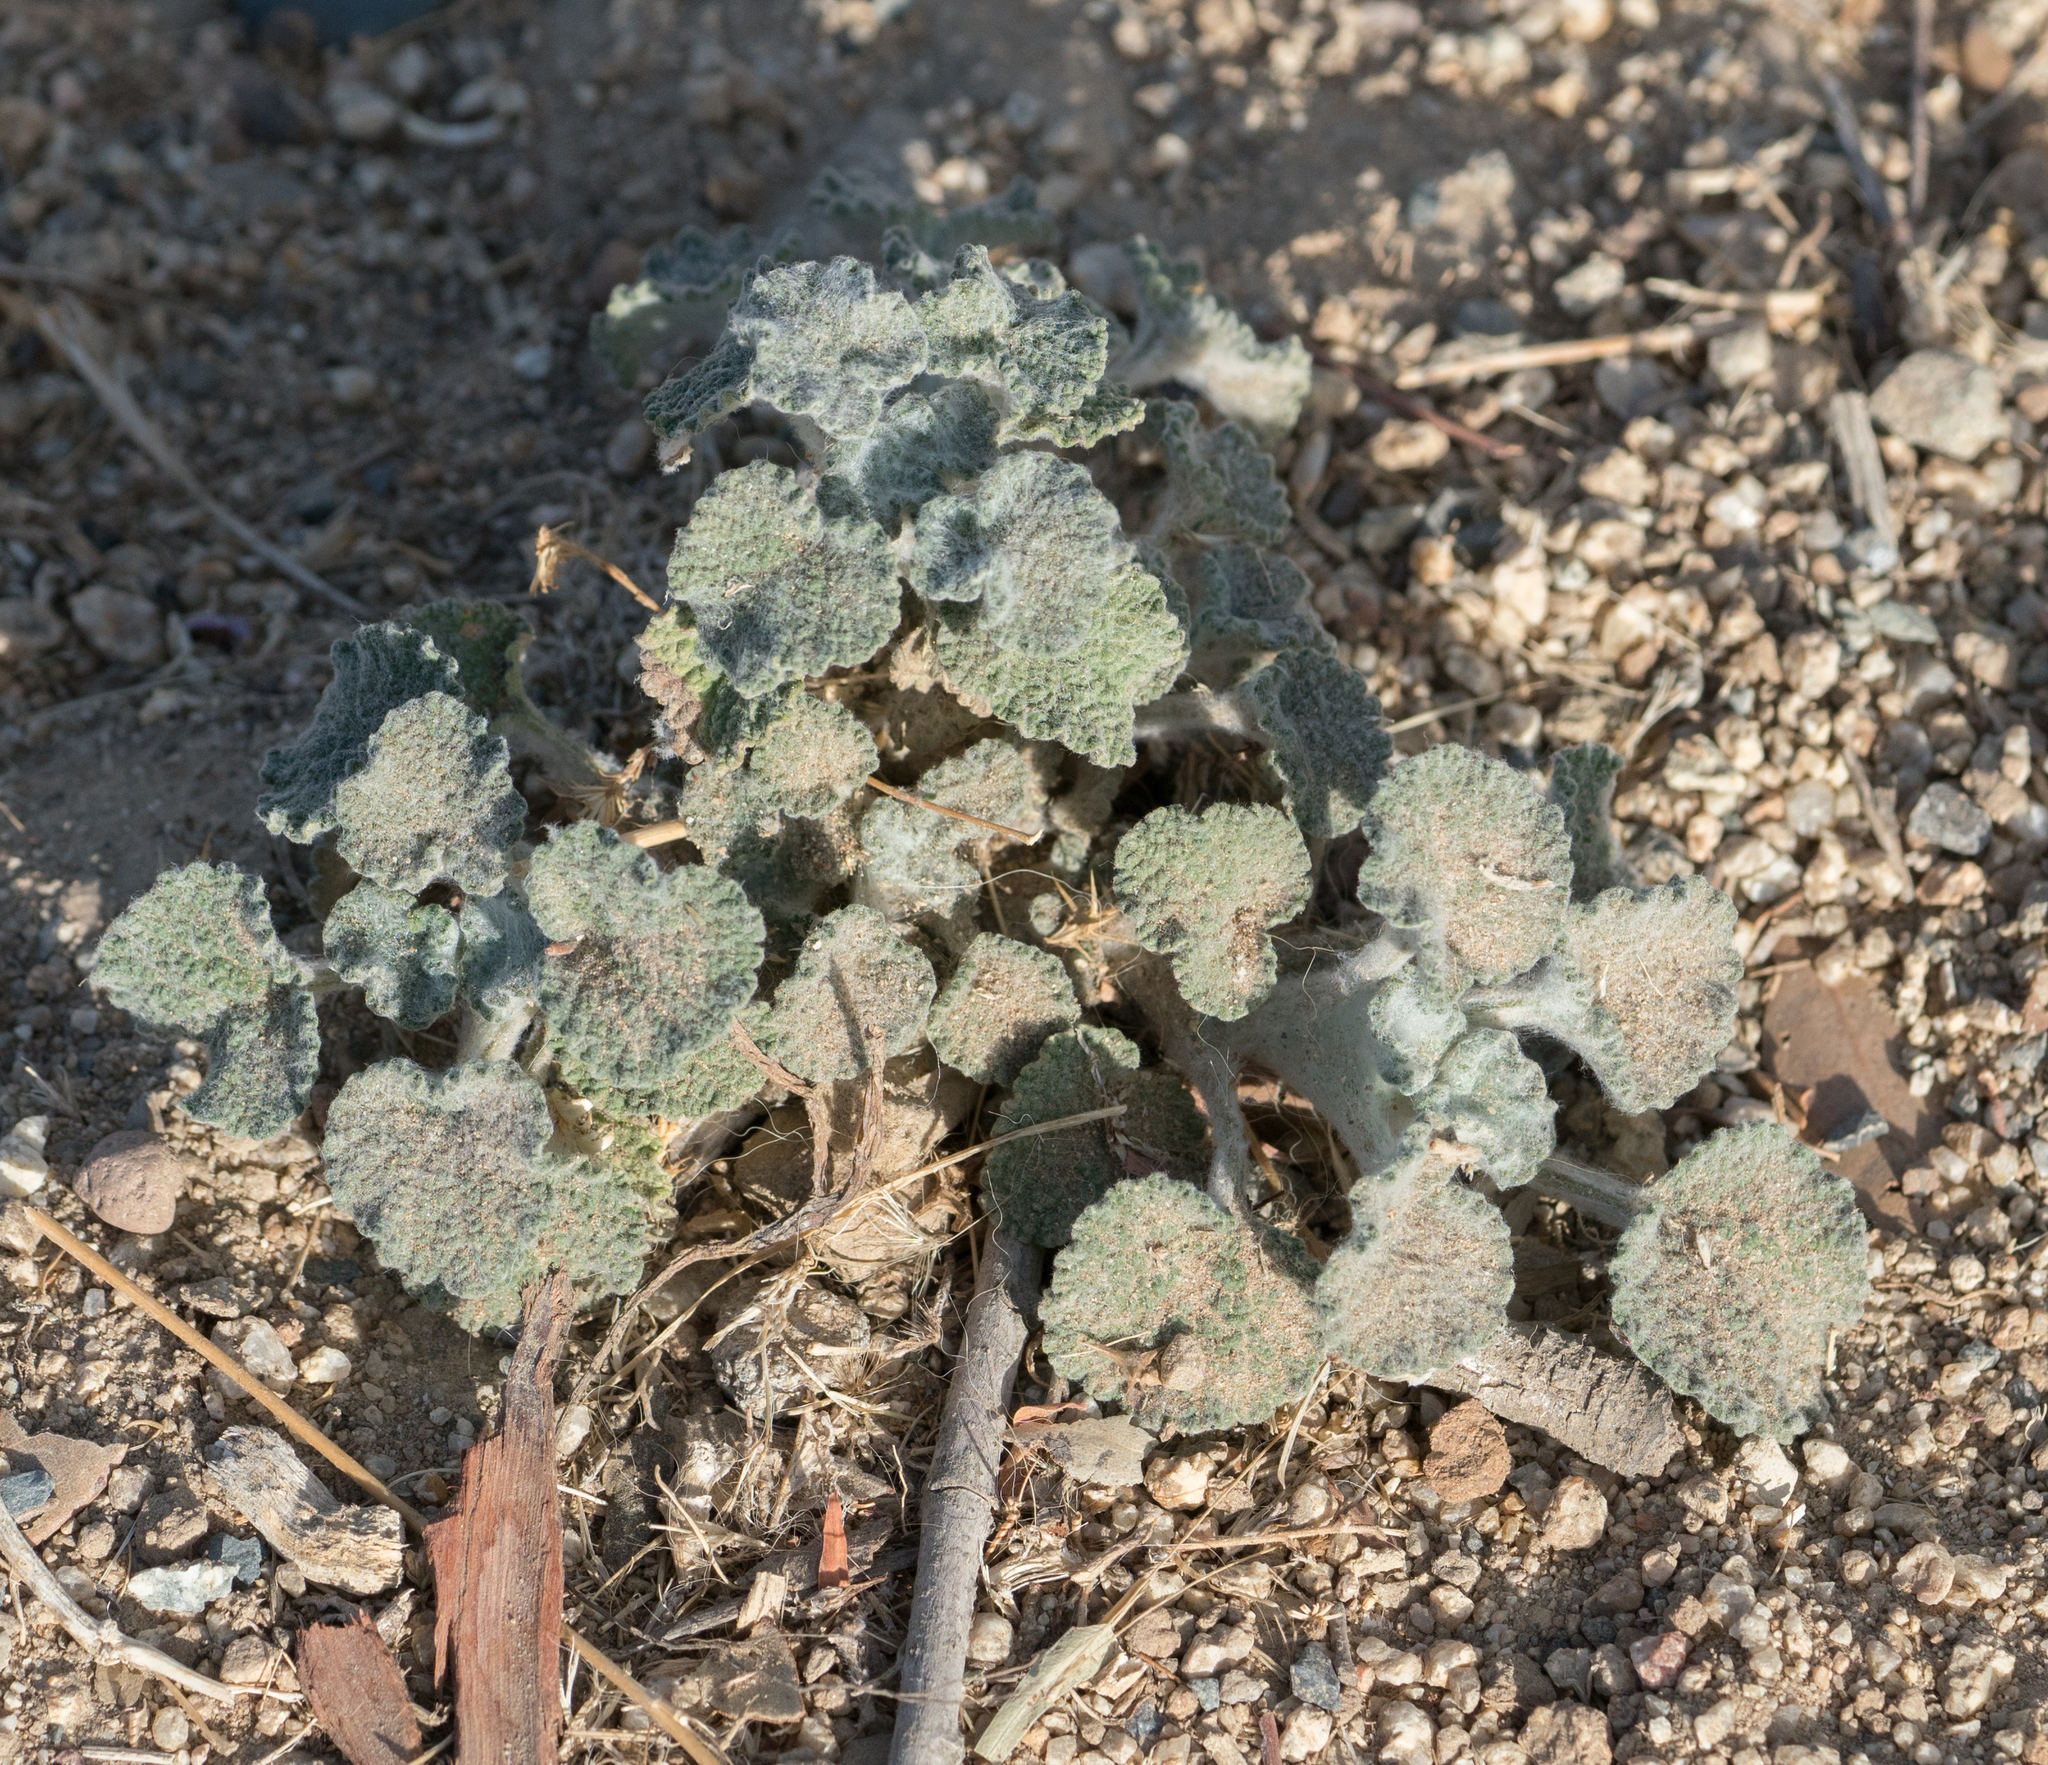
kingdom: Plantae
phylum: Tracheophyta
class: Magnoliopsida
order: Lamiales
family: Lamiaceae
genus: Marrubium
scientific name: Marrubium vulgare
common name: Horehound
